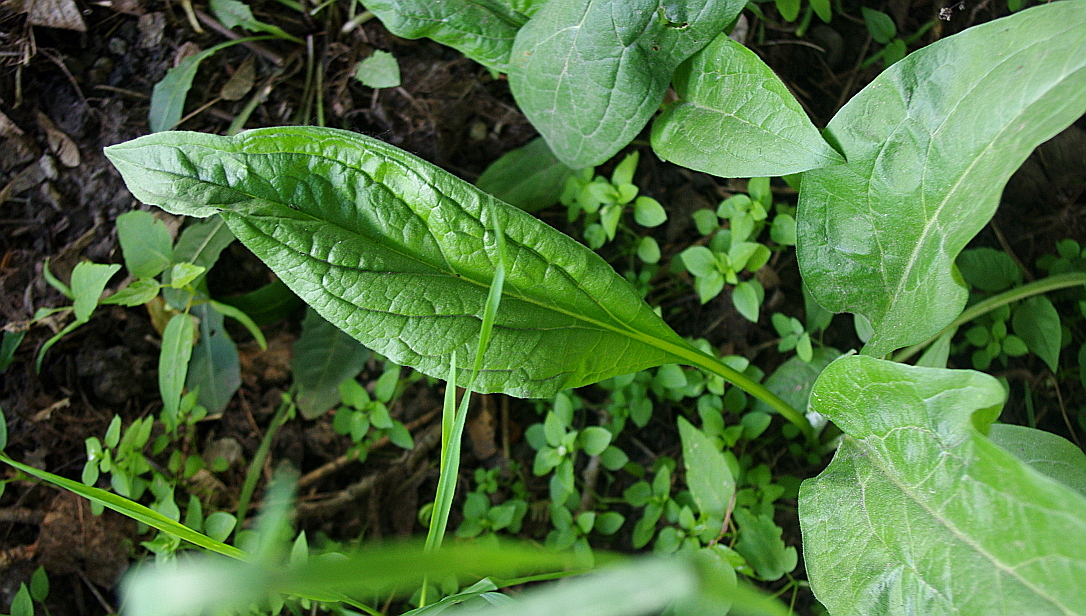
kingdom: Plantae
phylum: Tracheophyta
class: Magnoliopsida
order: Boraginales
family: Boraginaceae
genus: Cynoglossum
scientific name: Cynoglossum officinale
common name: Hound's-tongue
